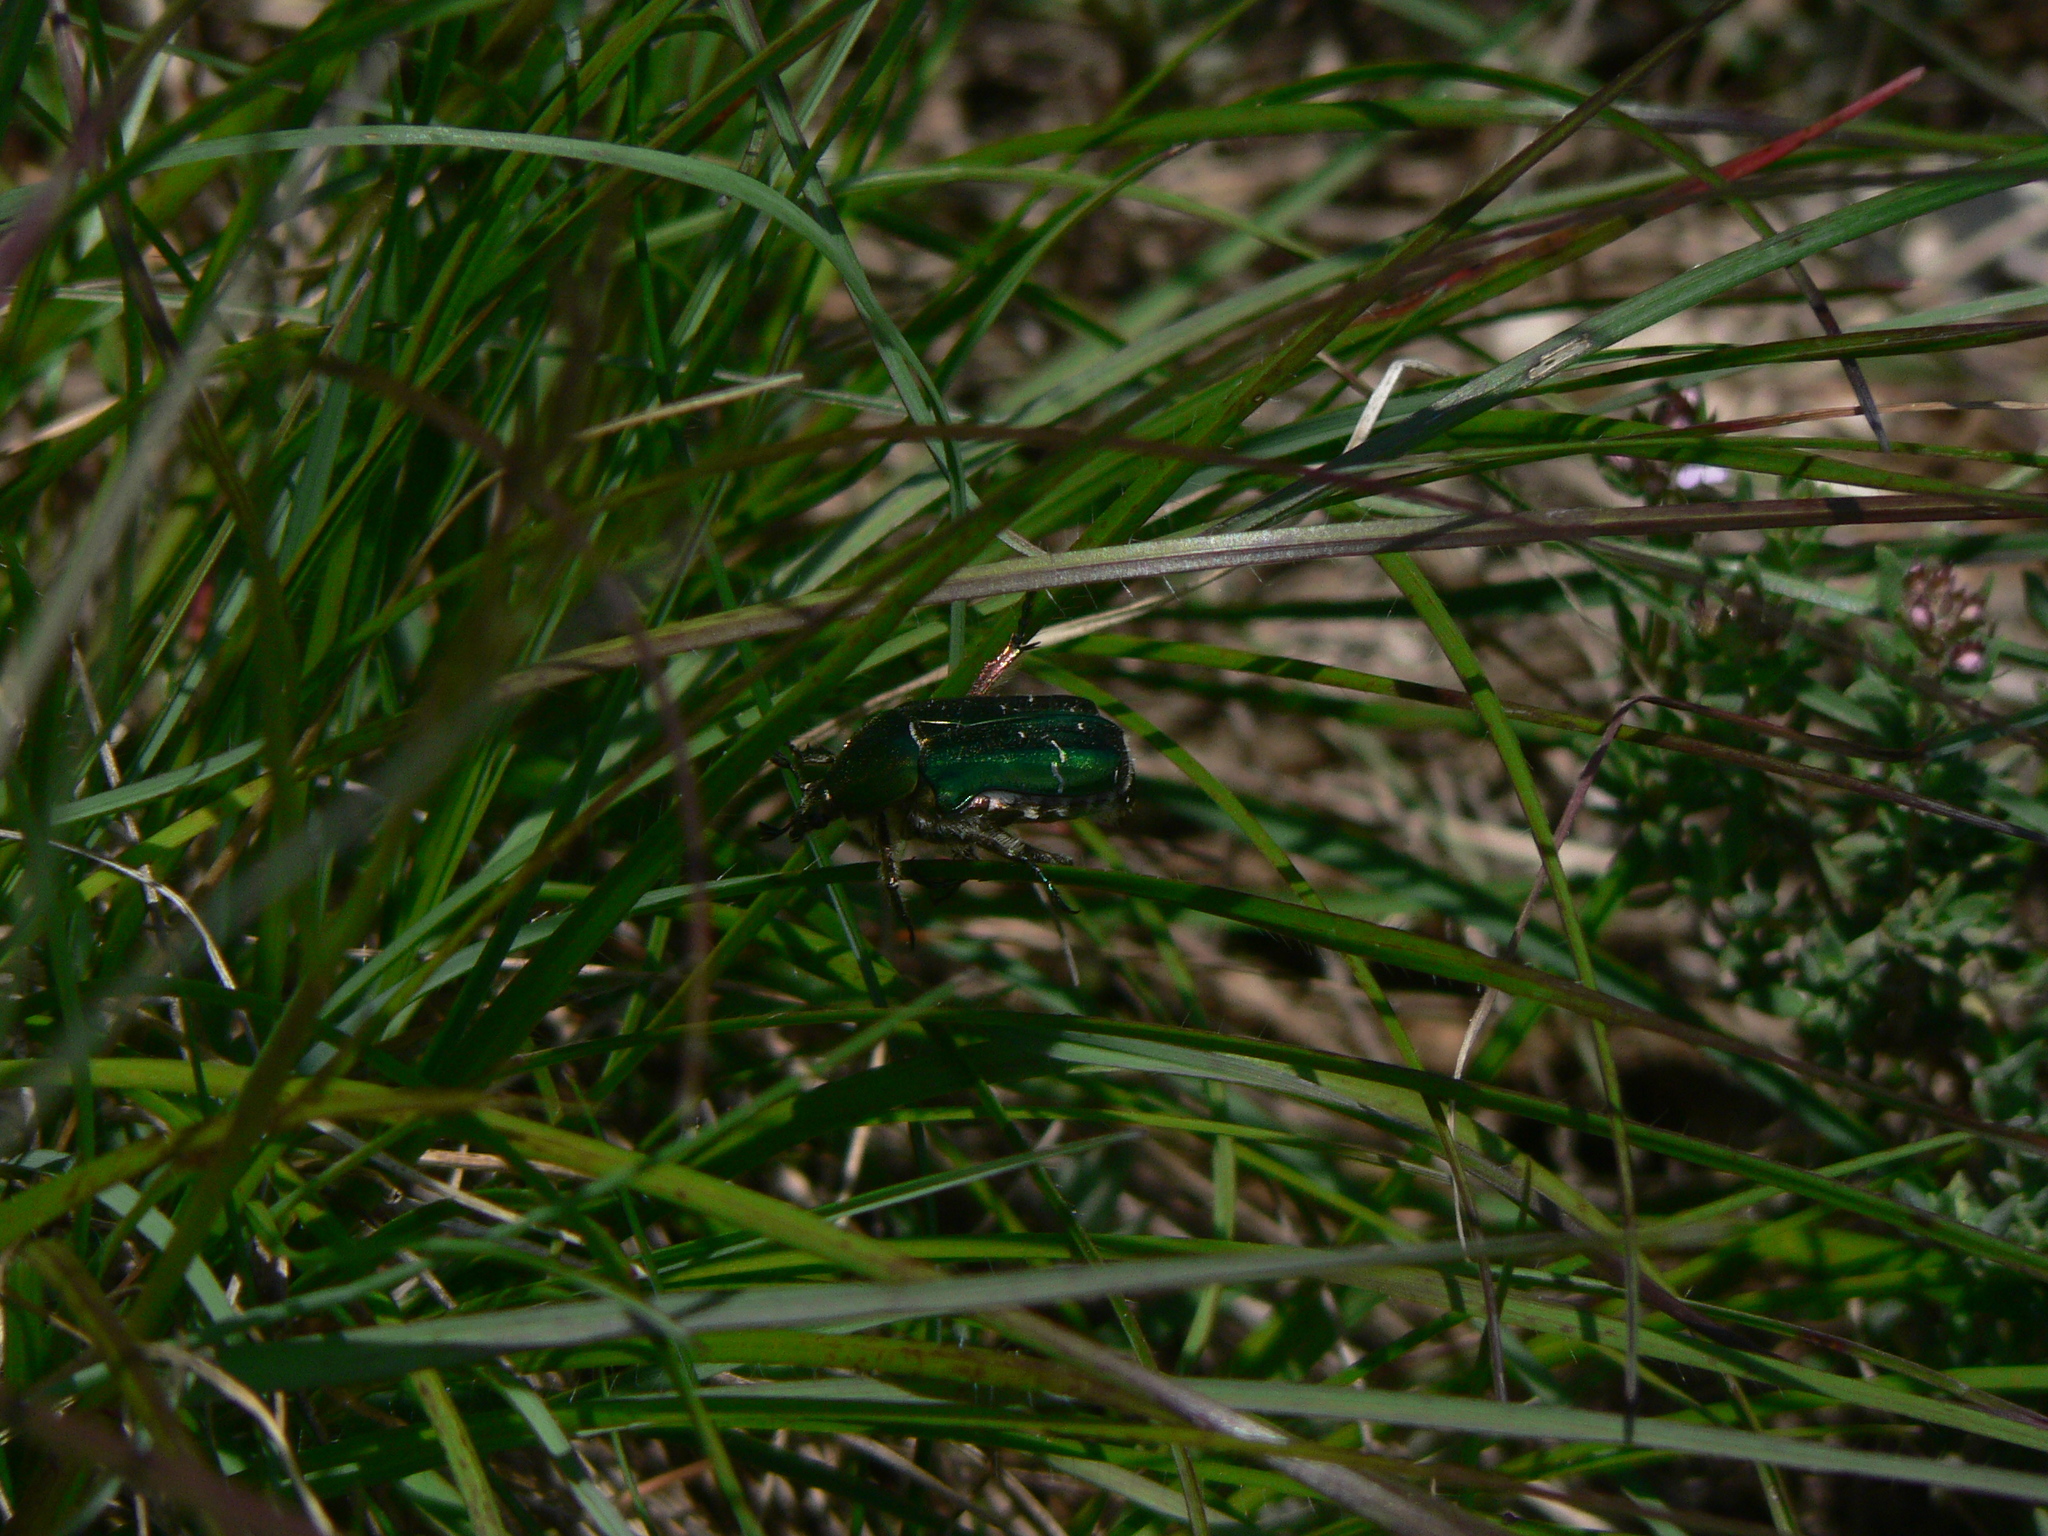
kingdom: Animalia
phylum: Arthropoda
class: Insecta
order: Coleoptera
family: Scarabaeidae
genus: Cetonia
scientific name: Cetonia aurata
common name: Rose chafer
